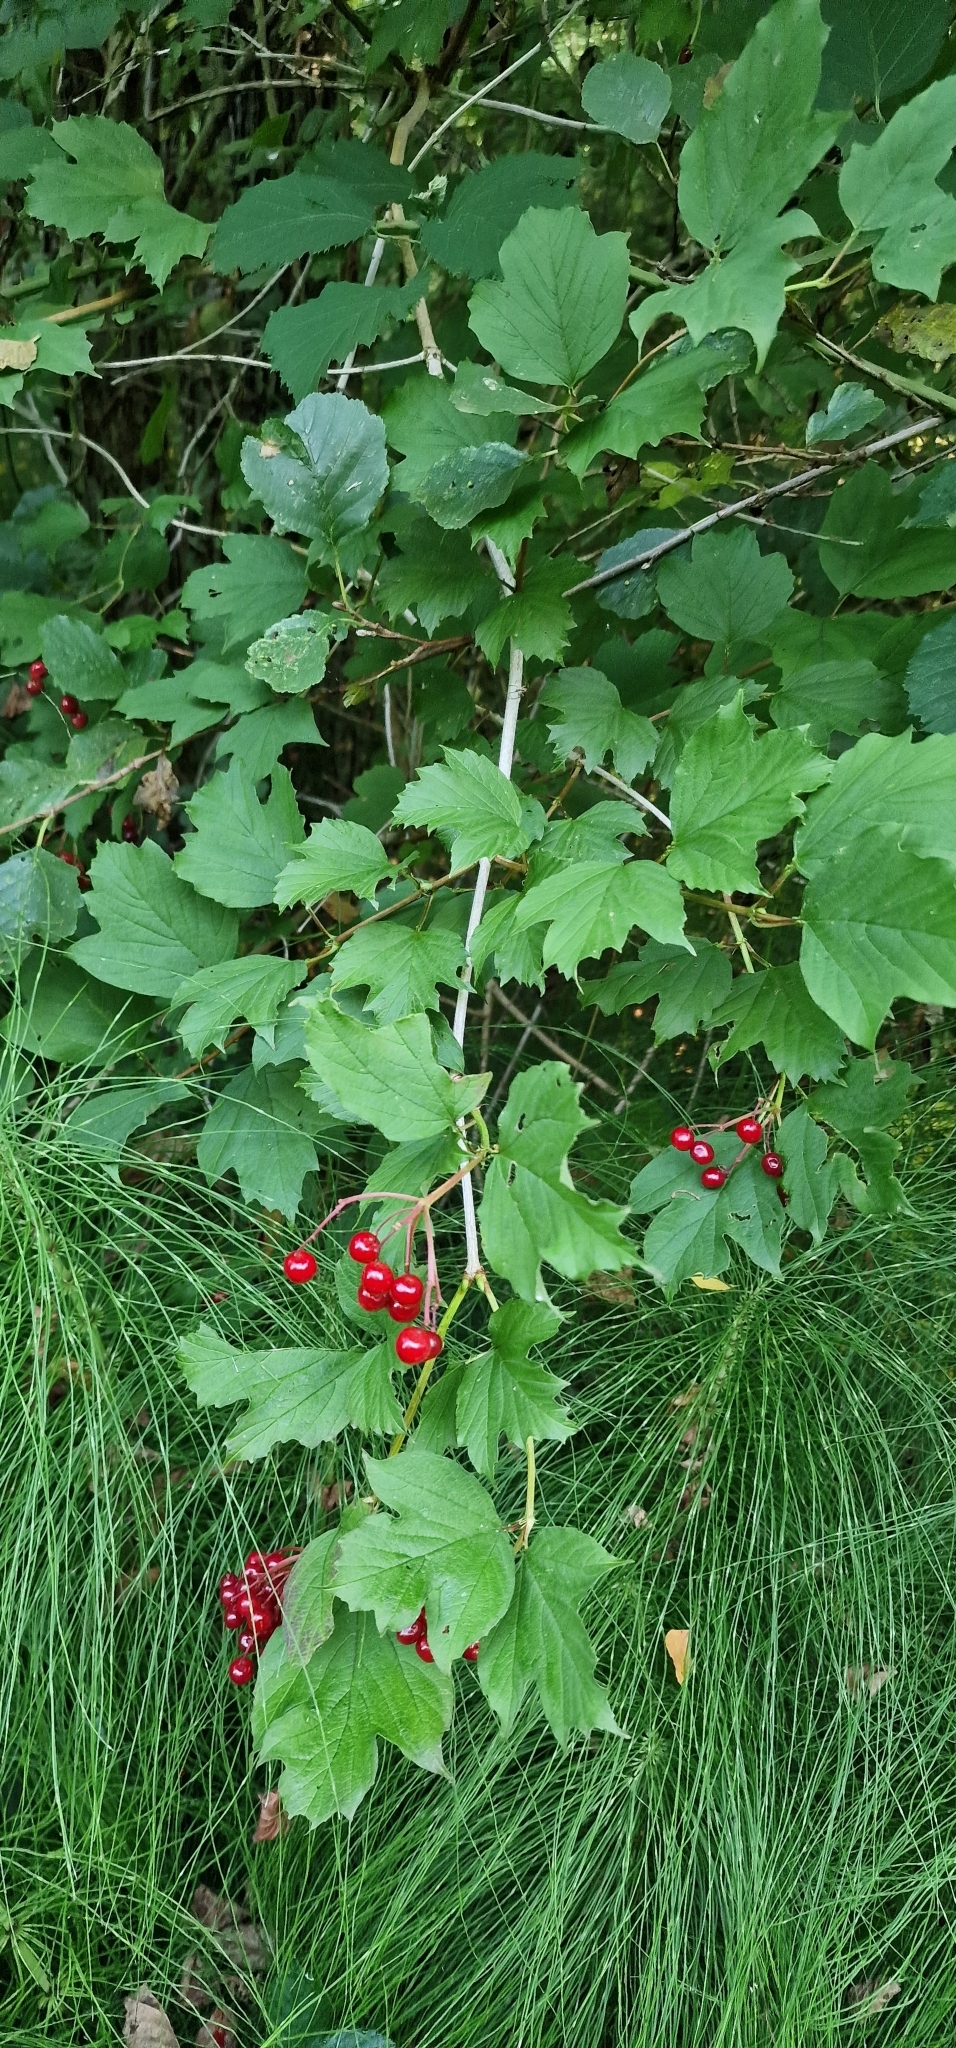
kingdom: Plantae
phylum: Tracheophyta
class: Magnoliopsida
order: Dipsacales
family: Viburnaceae
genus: Viburnum
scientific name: Viburnum opulus
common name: Guelder-rose
